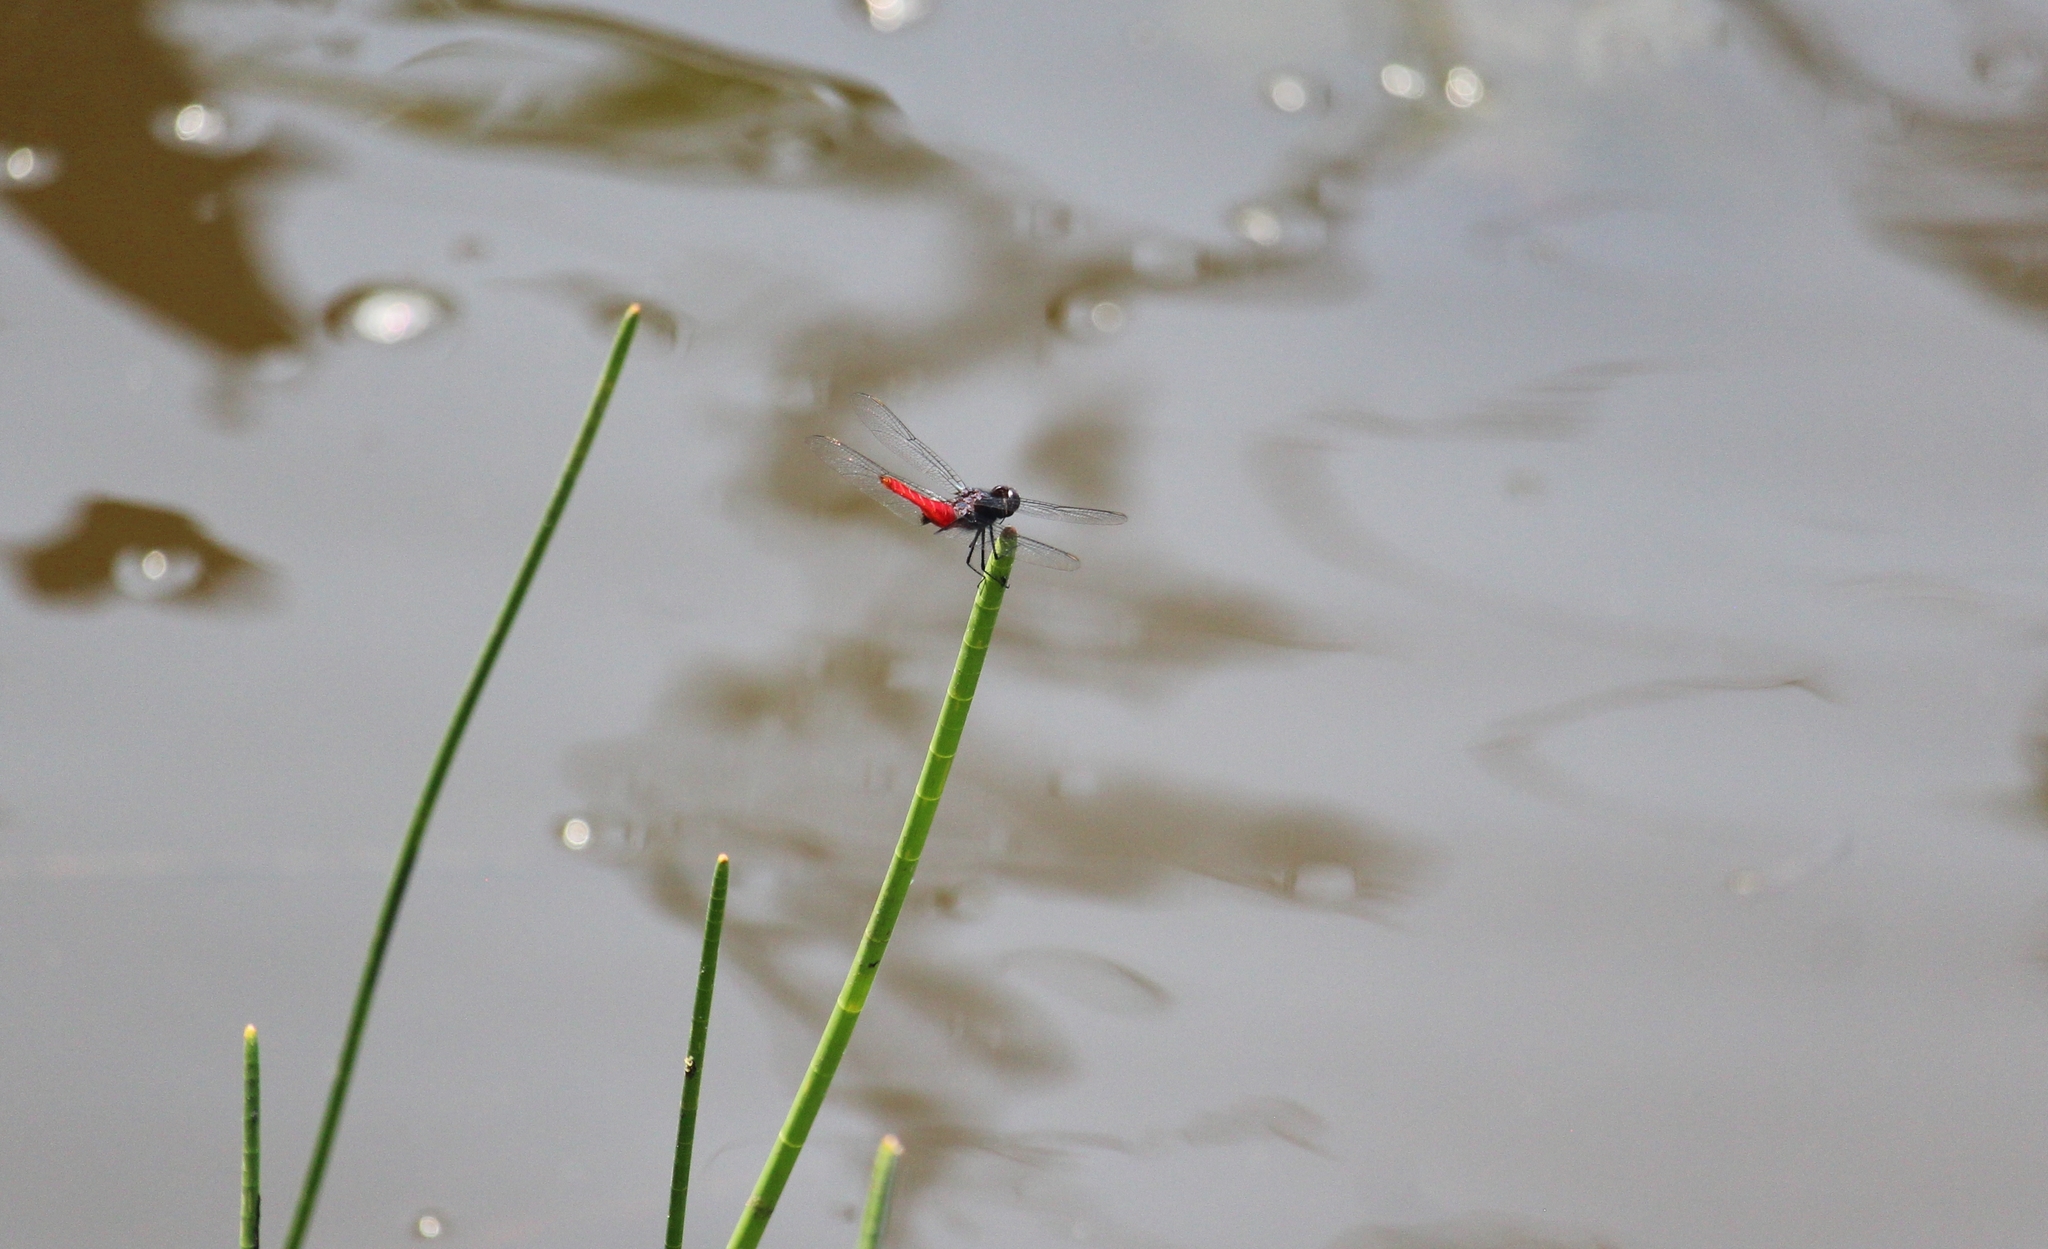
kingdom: Animalia
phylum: Arthropoda
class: Insecta
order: Odonata
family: Libellulidae
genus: Planiplax
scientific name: Planiplax sanguiniventris
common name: Mexican scarlet-tail
